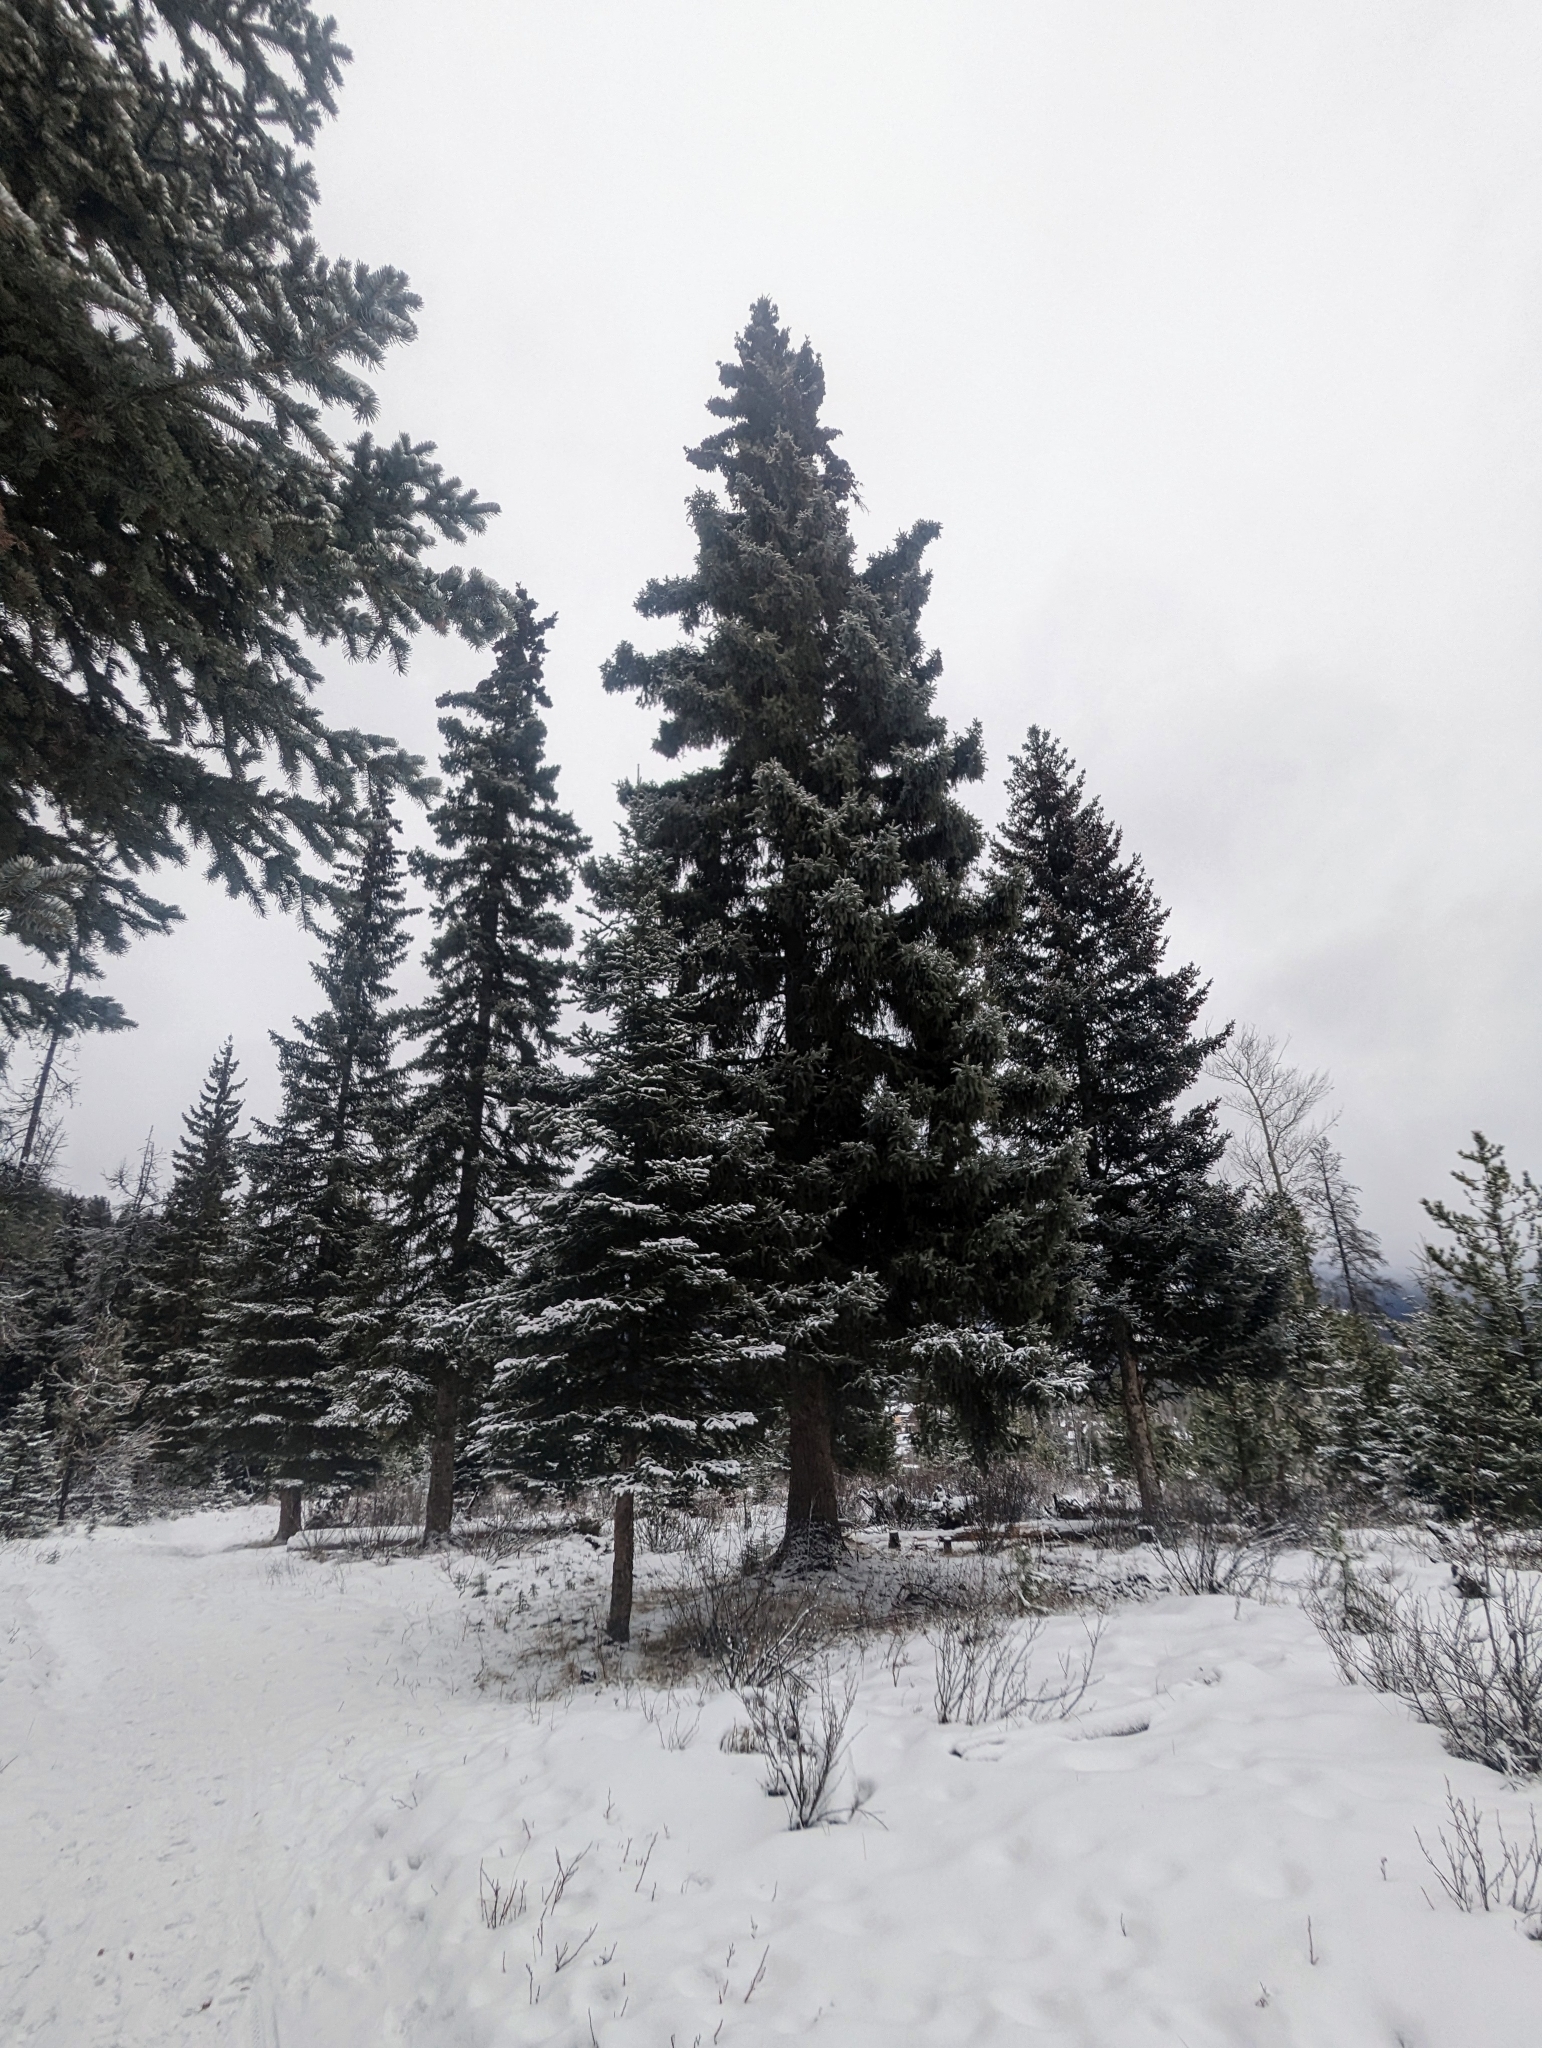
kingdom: Plantae
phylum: Tracheophyta
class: Pinopsida
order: Pinales
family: Pinaceae
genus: Picea
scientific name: Picea glauca
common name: White spruce
